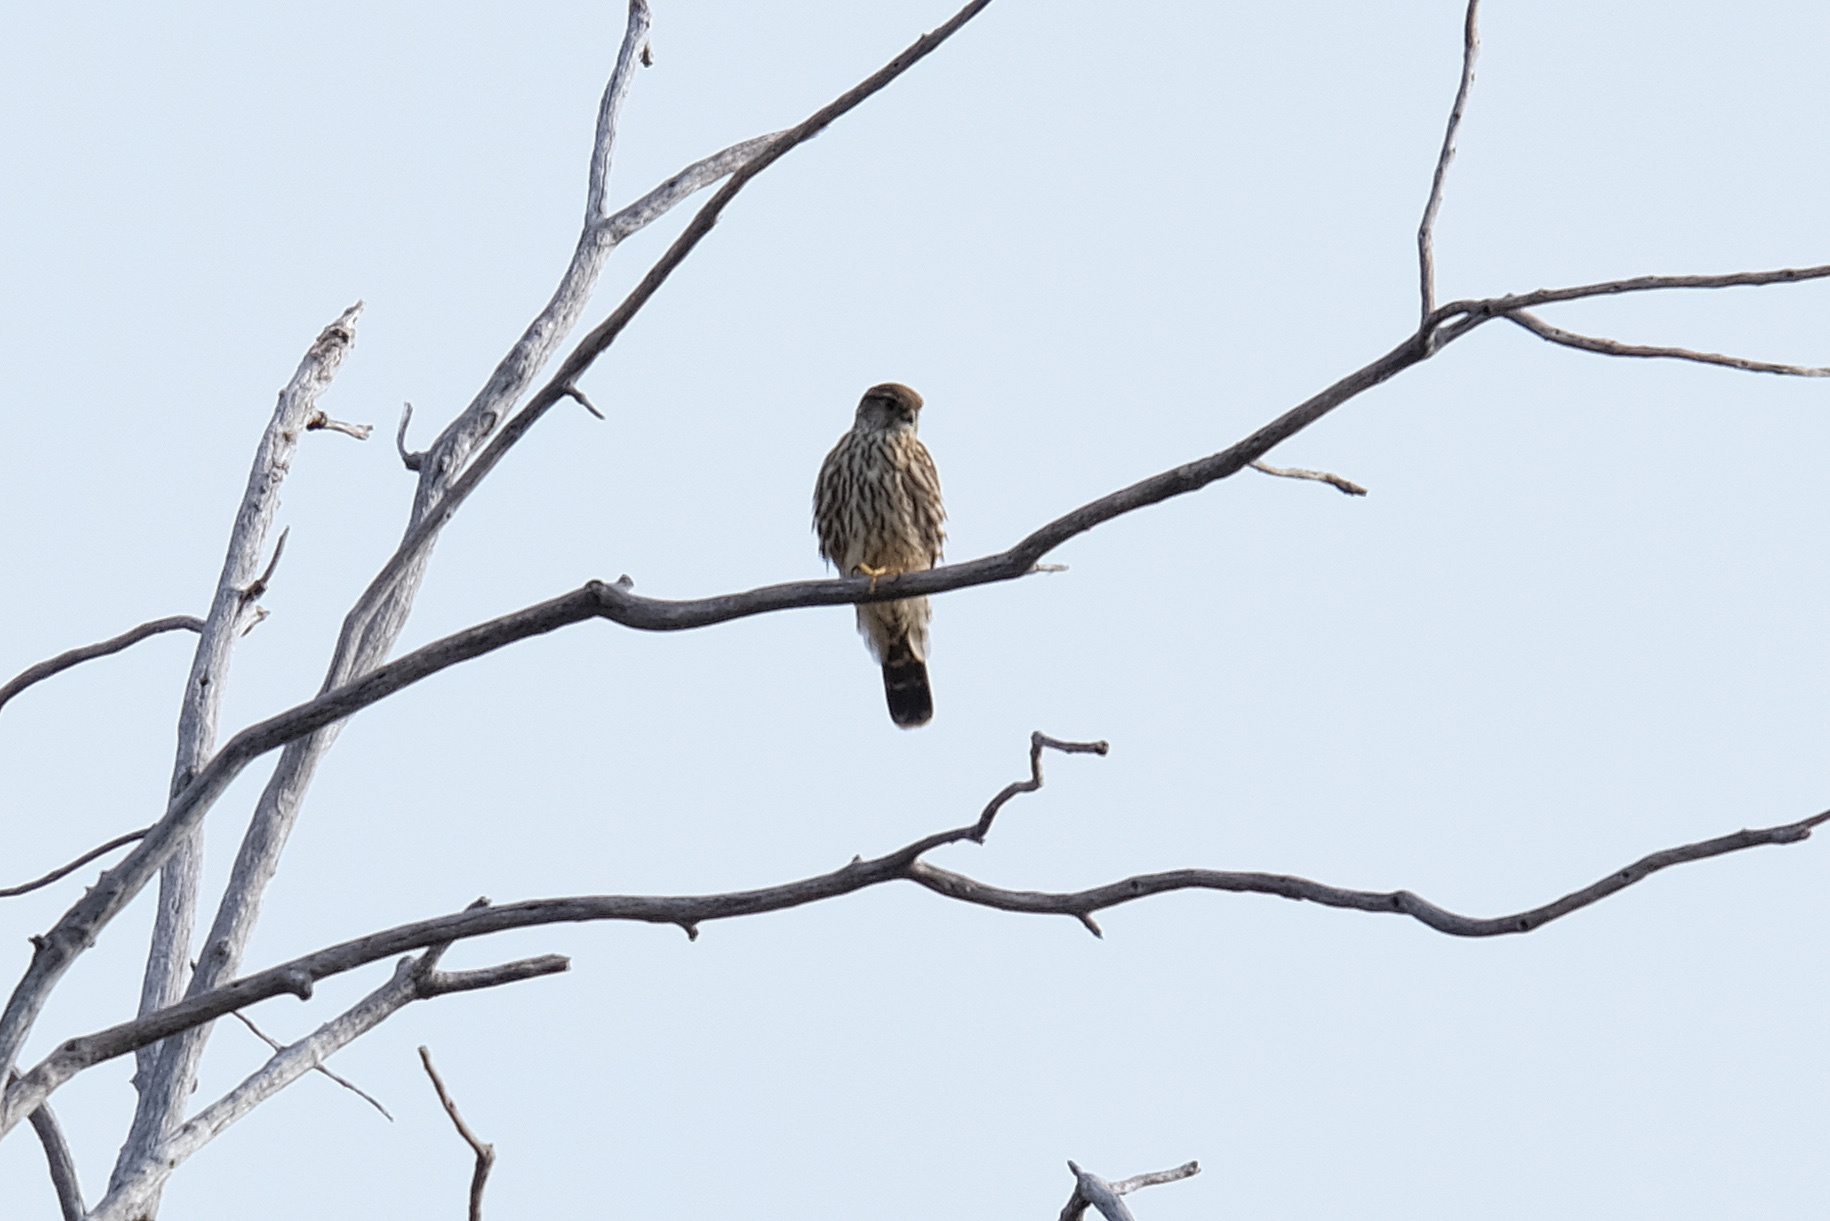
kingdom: Animalia
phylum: Chordata
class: Aves
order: Falconiformes
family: Falconidae
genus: Falco
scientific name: Falco columbarius
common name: Merlin
